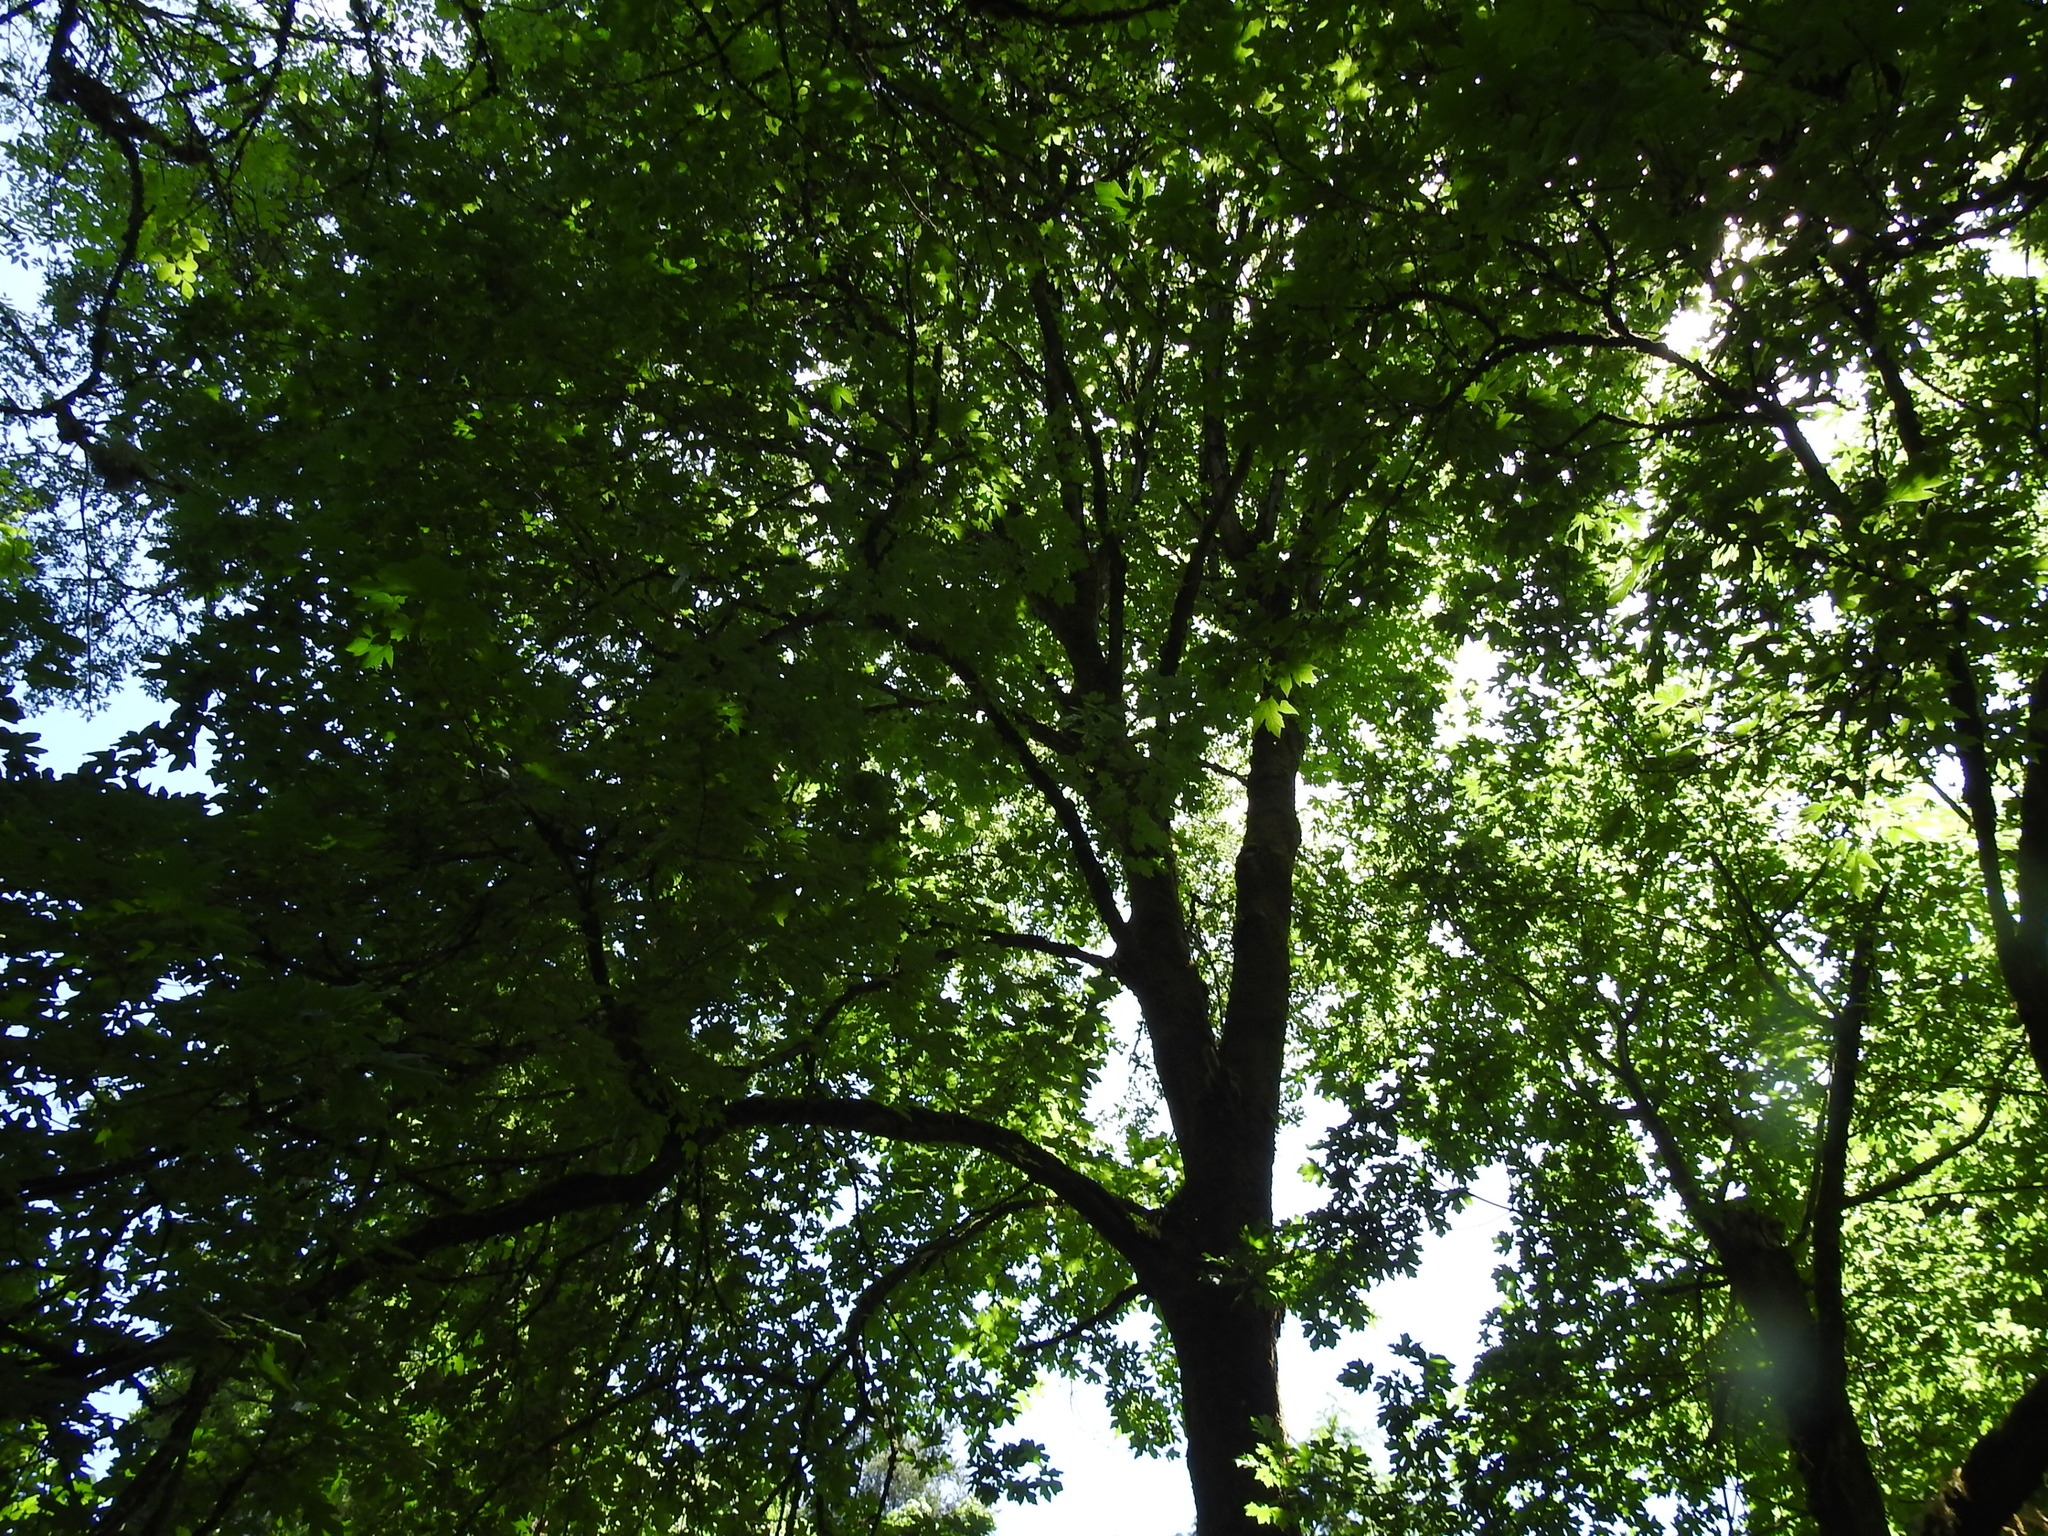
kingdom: Plantae
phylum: Tracheophyta
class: Magnoliopsida
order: Sapindales
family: Sapindaceae
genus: Acer
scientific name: Acer macrophyllum
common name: Oregon maple
